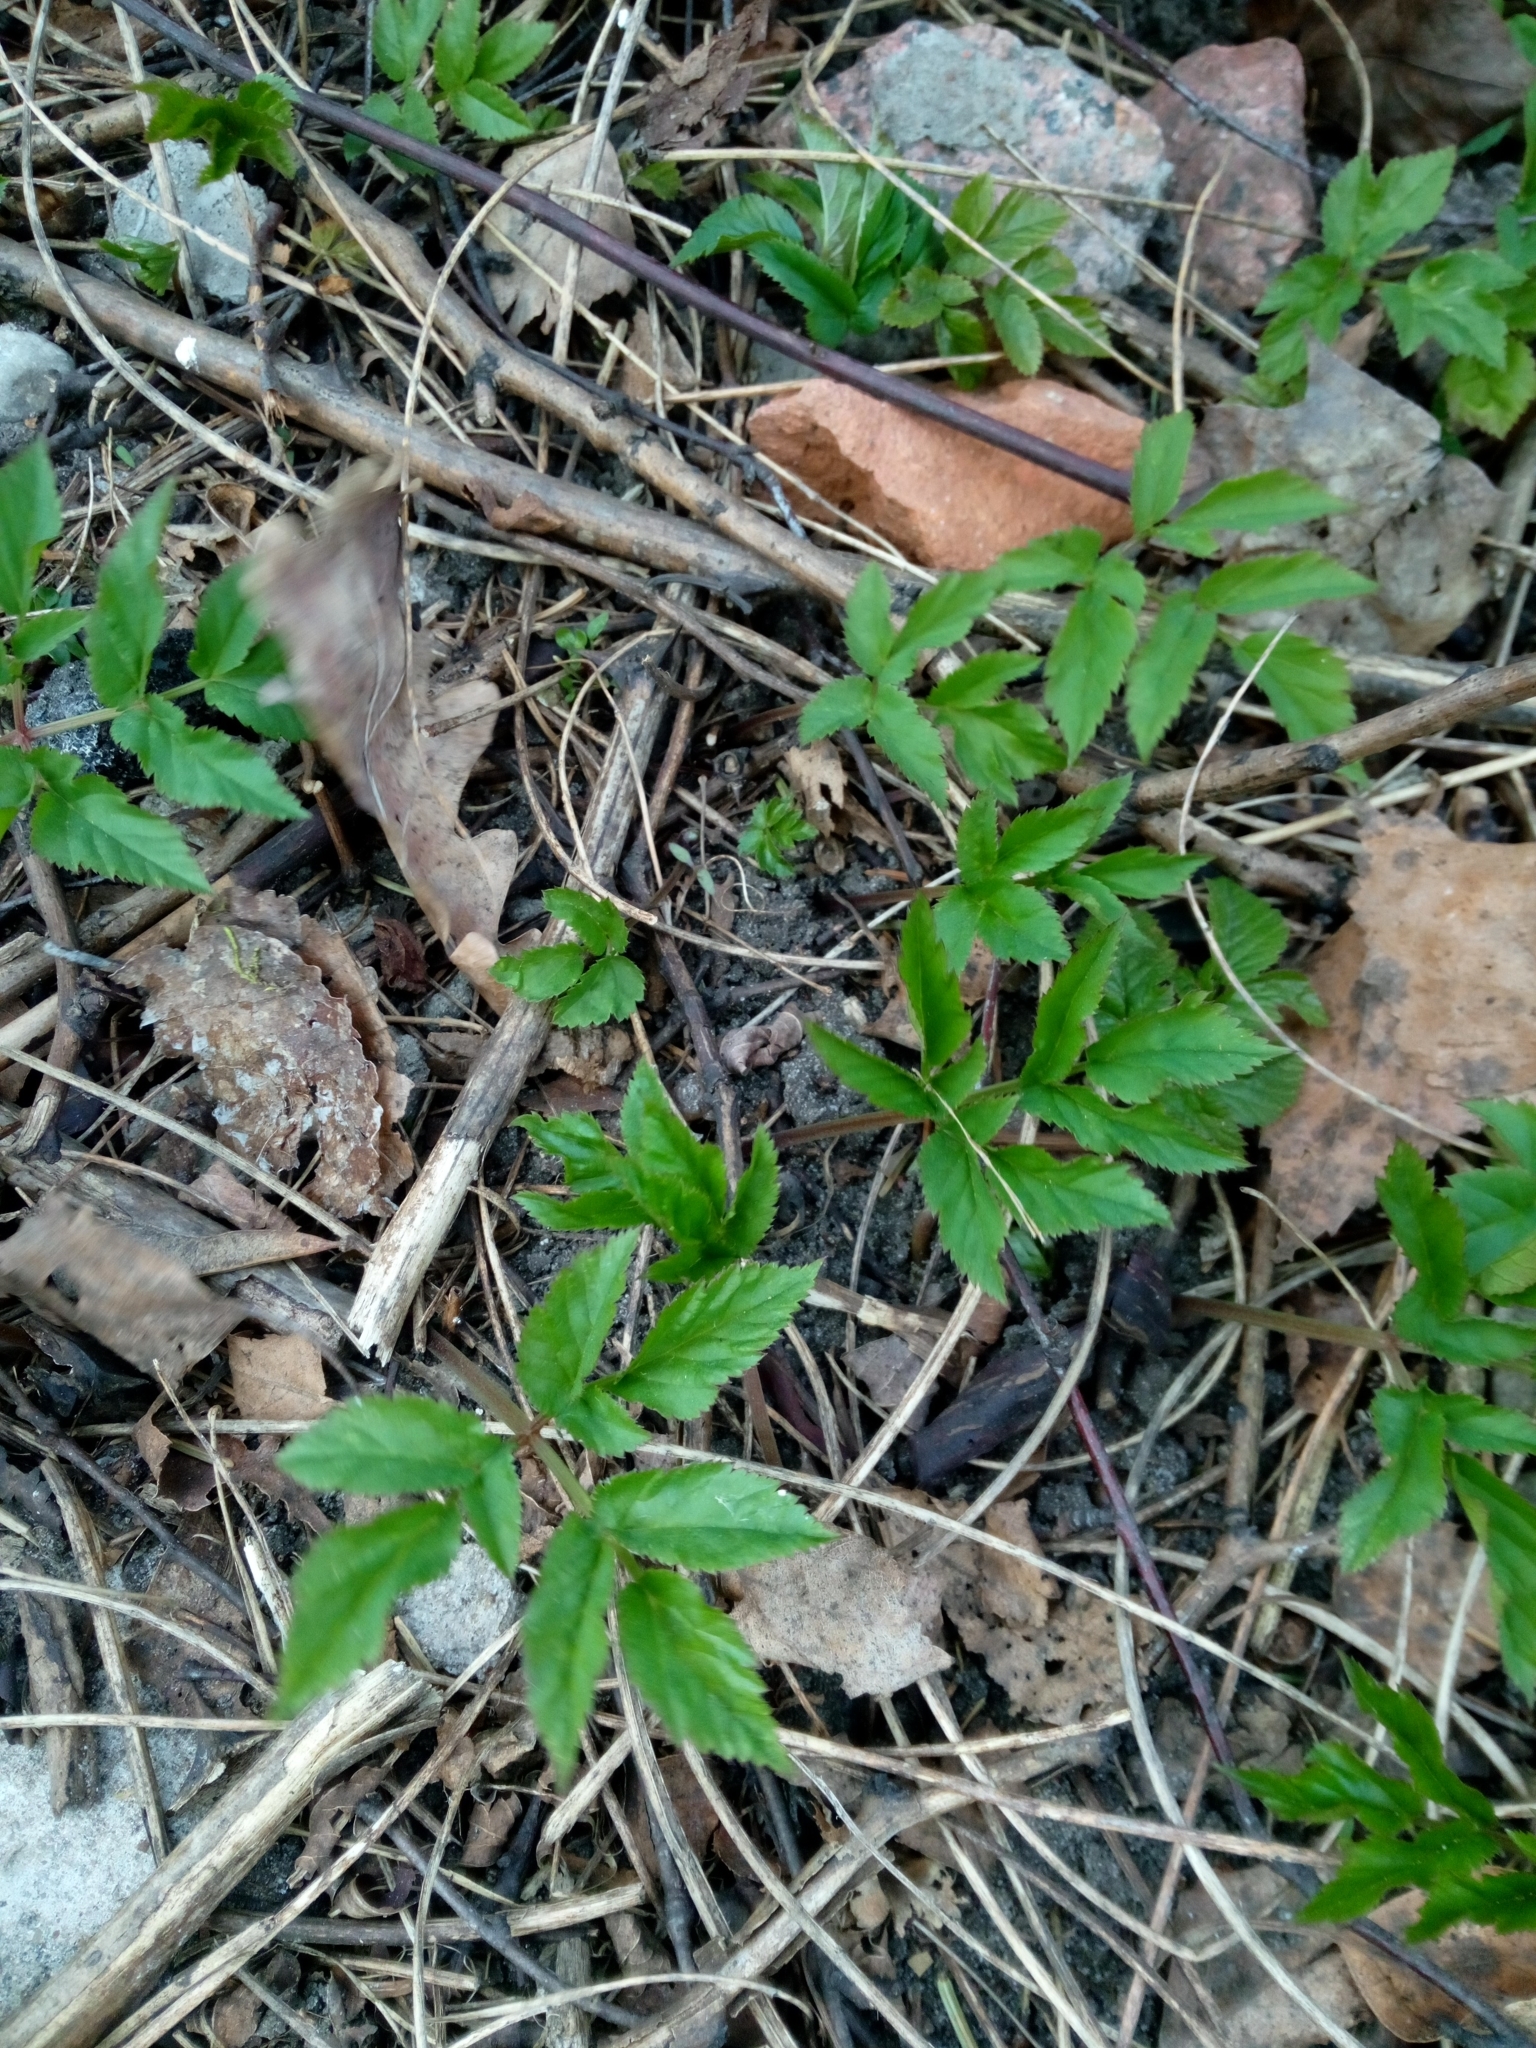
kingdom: Plantae
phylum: Tracheophyta
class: Magnoliopsida
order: Apiales
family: Apiaceae
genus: Aegopodium
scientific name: Aegopodium podagraria
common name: Ground-elder
